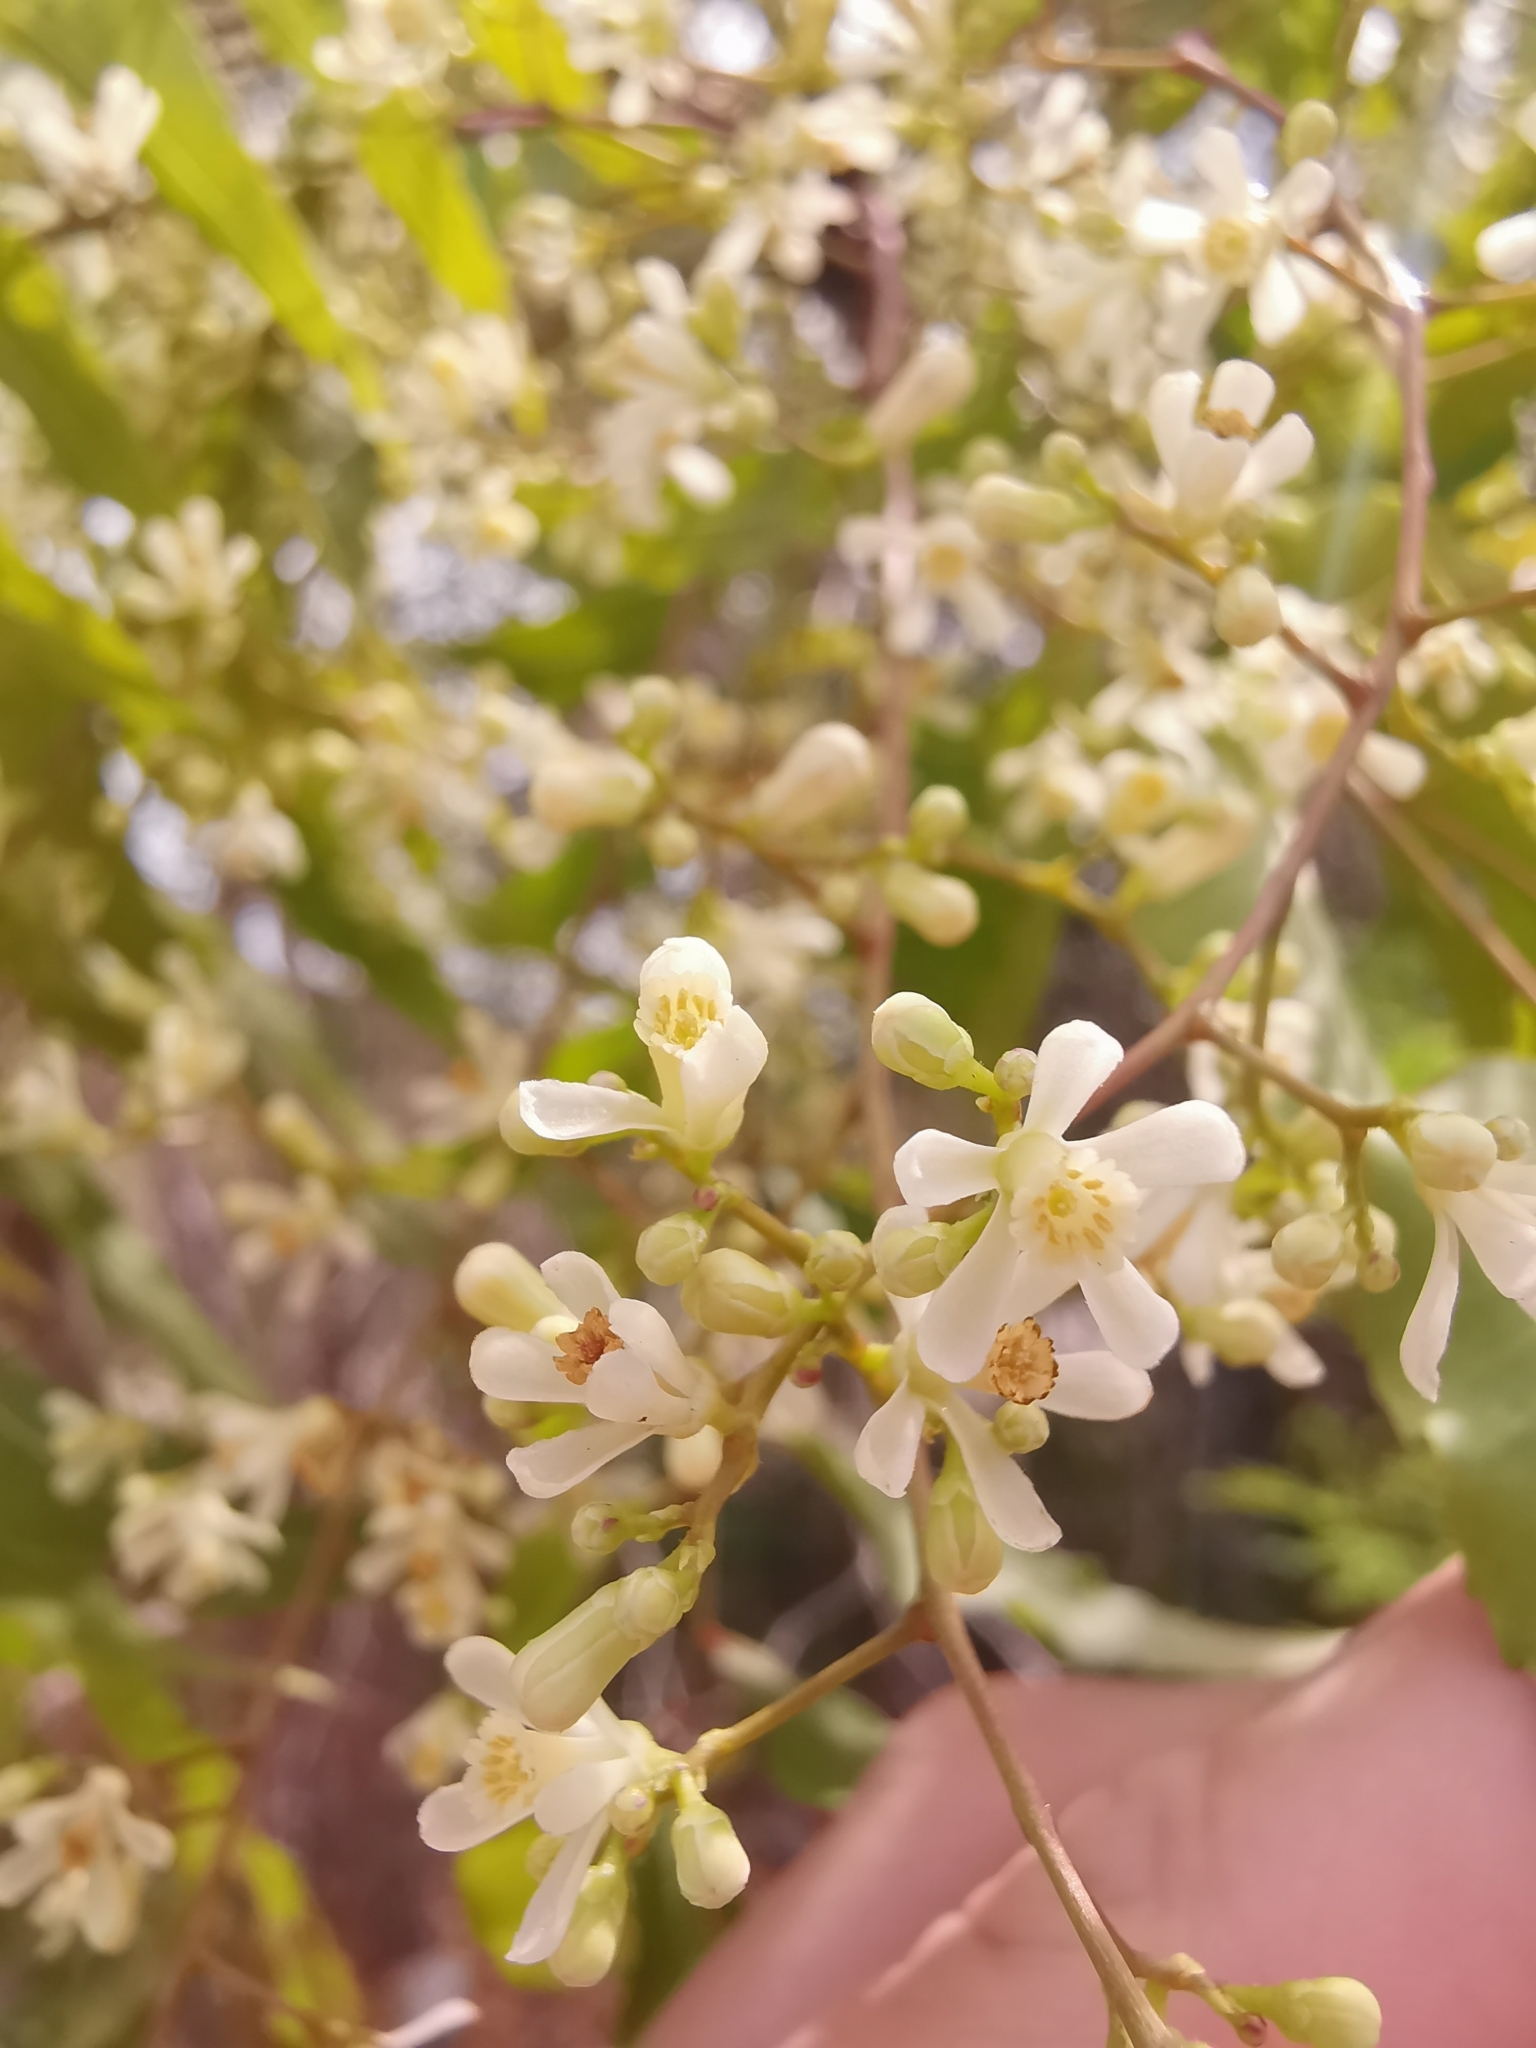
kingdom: Plantae
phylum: Tracheophyta
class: Magnoliopsida
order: Sapindales
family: Meliaceae
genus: Azadirachta
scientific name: Azadirachta indica
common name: Neem
